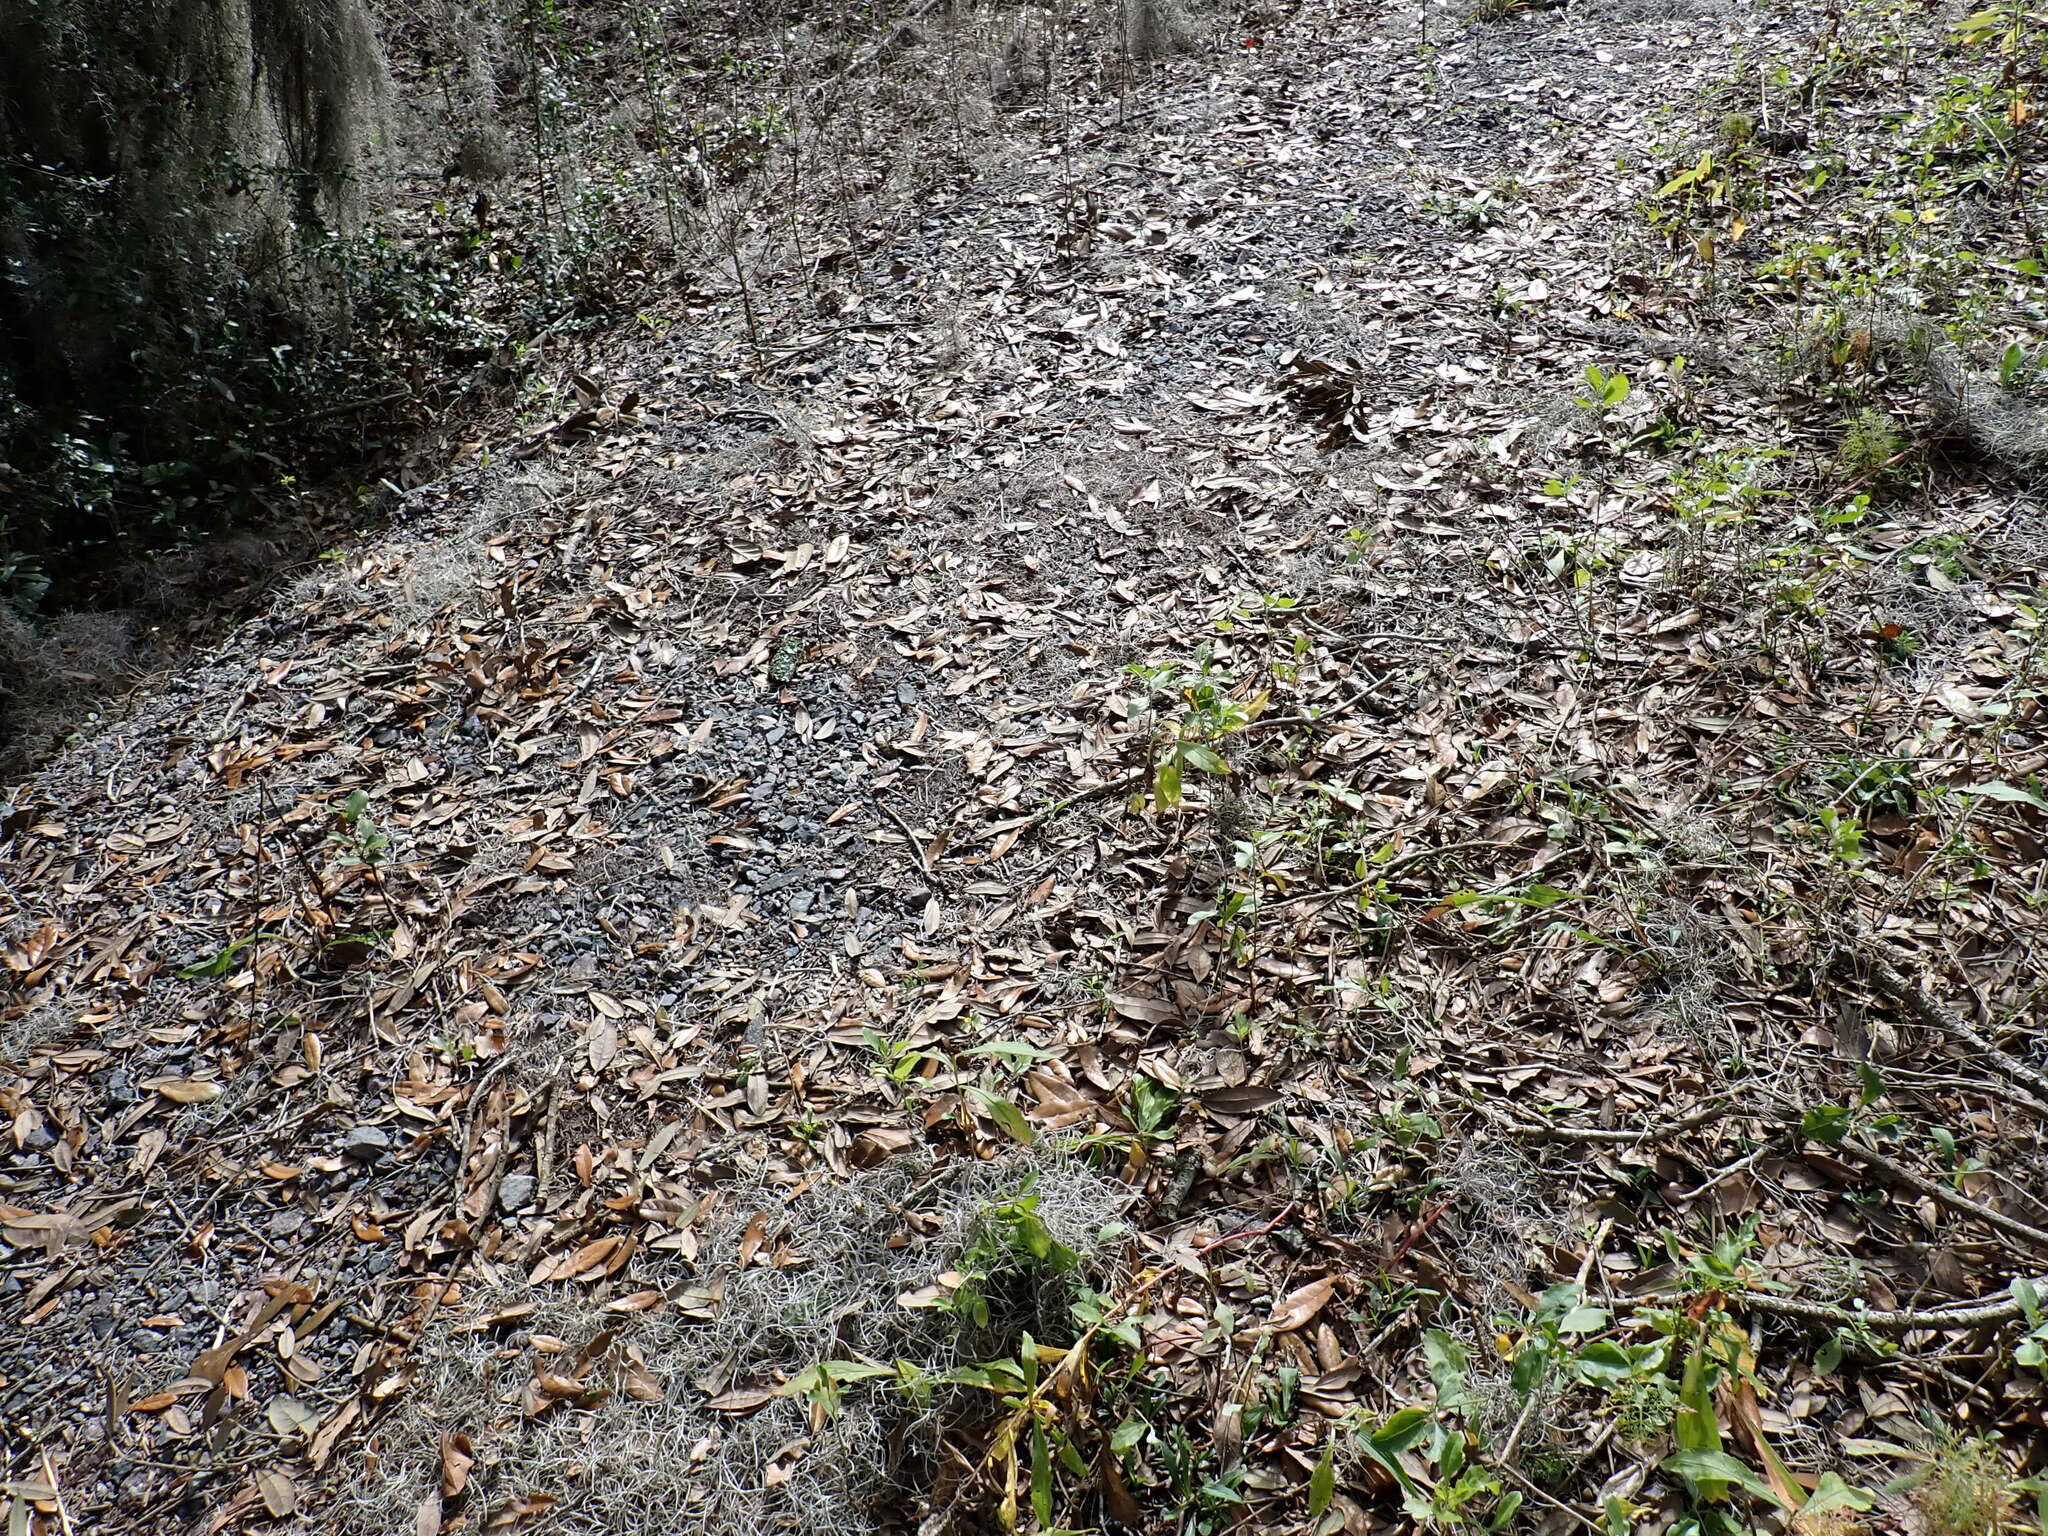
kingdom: Plantae
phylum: Tracheophyta
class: Polypodiopsida
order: Polypodiales
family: Polypodiaceae
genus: Pleopeltis
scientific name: Pleopeltis michauxiana
